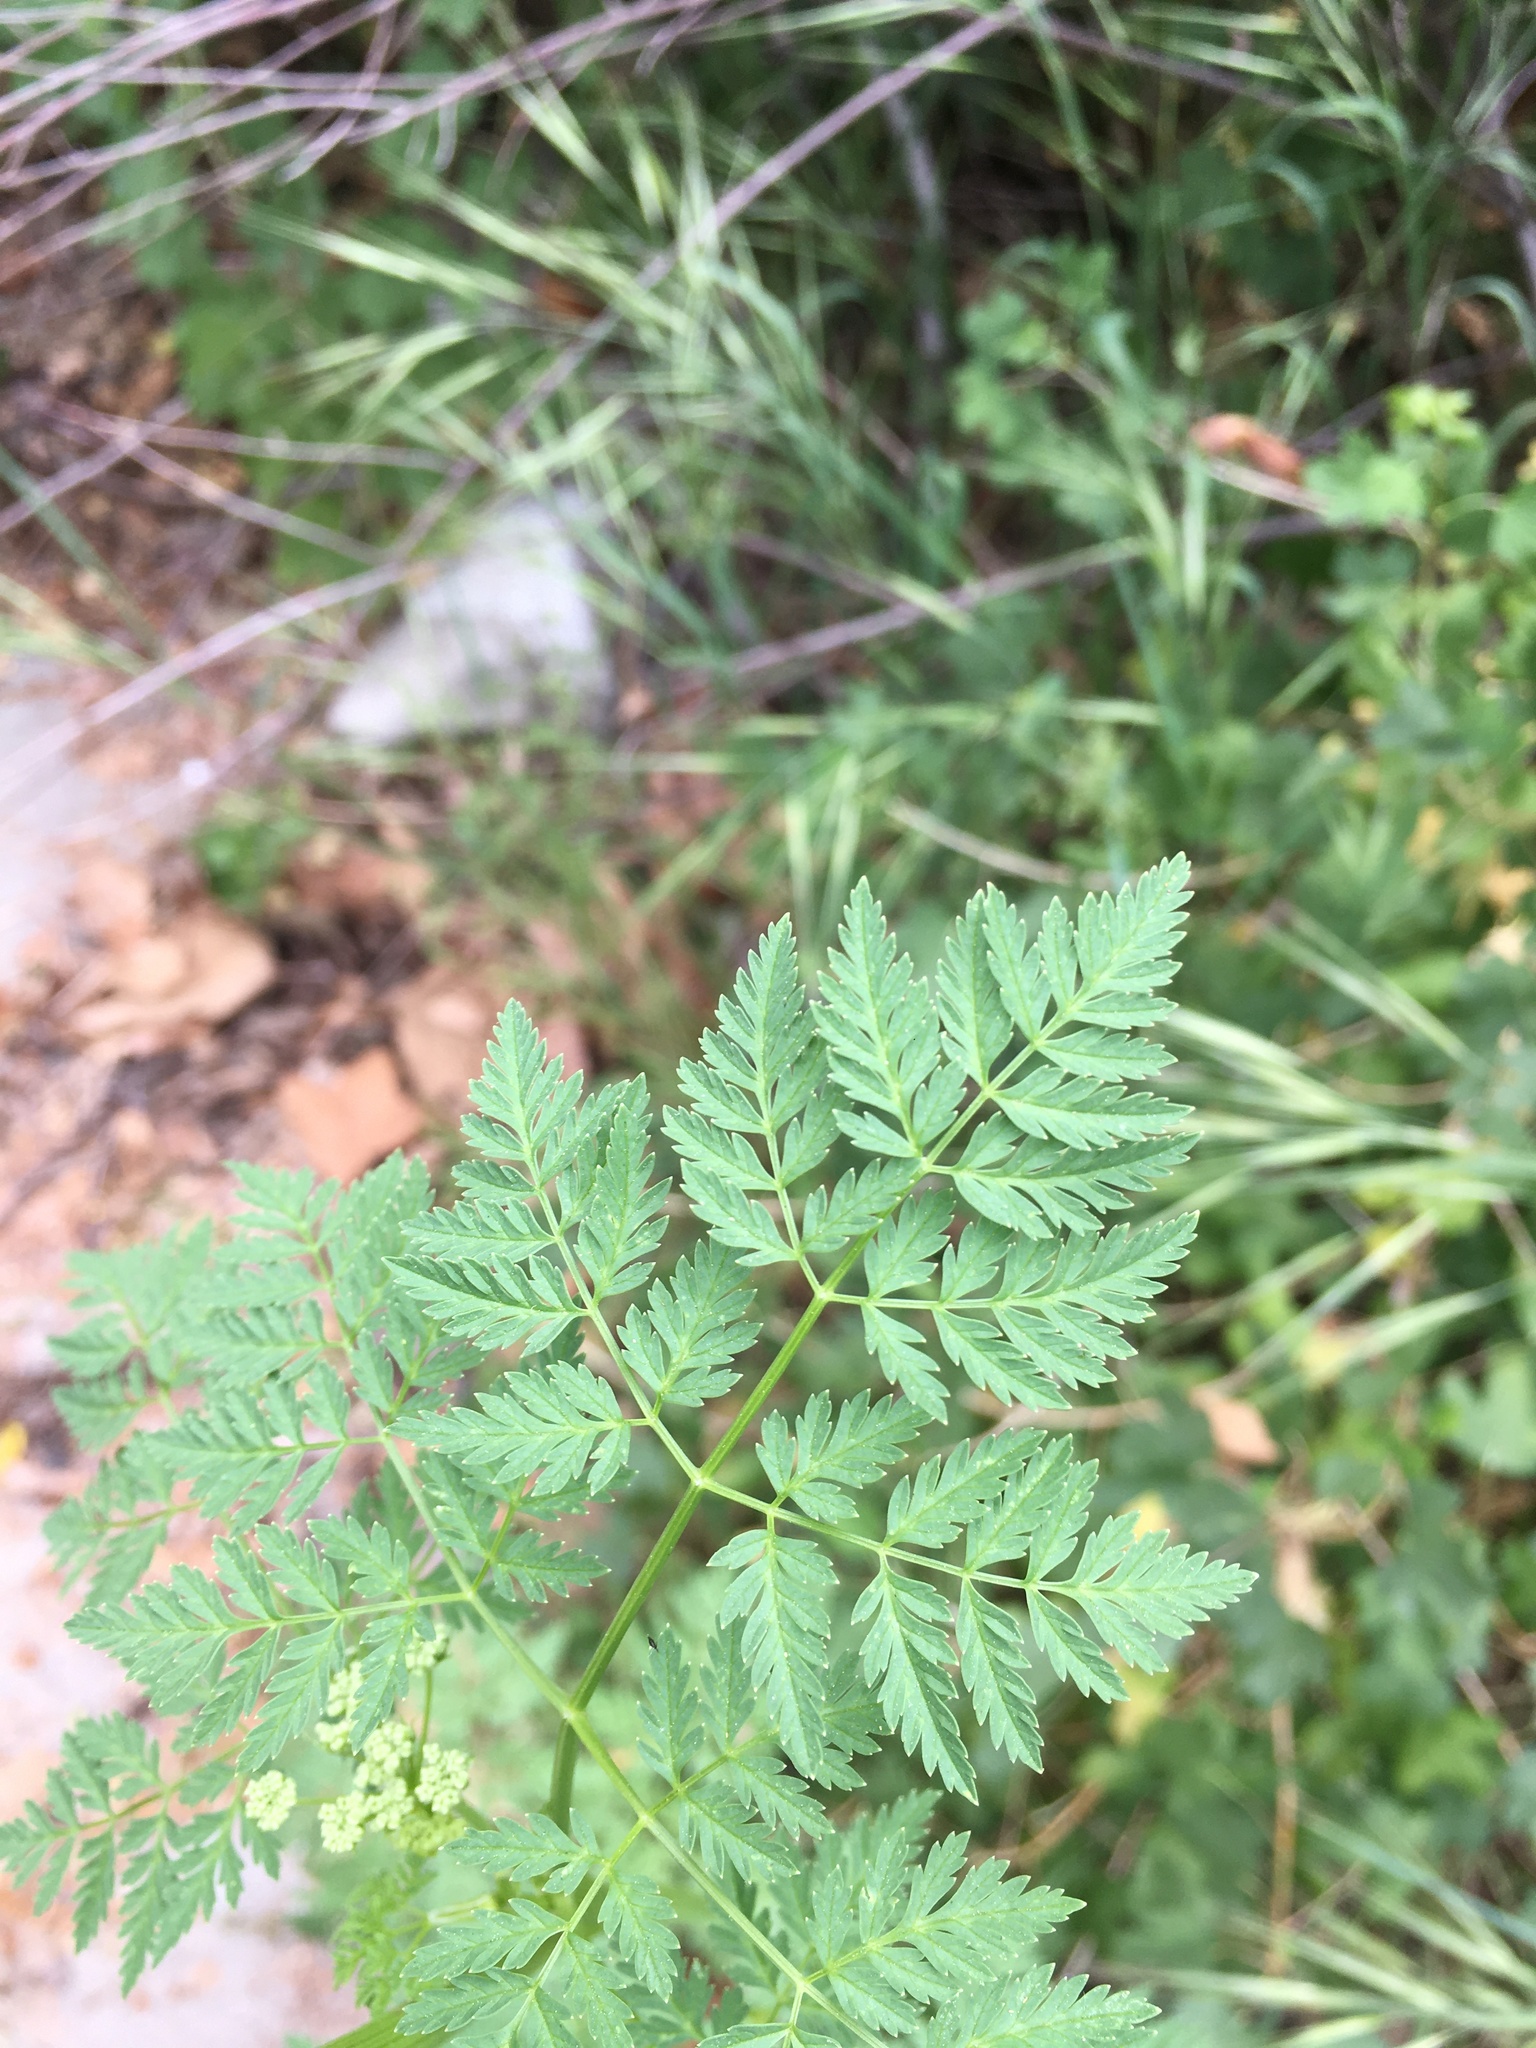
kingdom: Plantae
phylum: Tracheophyta
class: Magnoliopsida
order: Apiales
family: Apiaceae
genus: Conium
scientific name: Conium maculatum
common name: Hemlock
